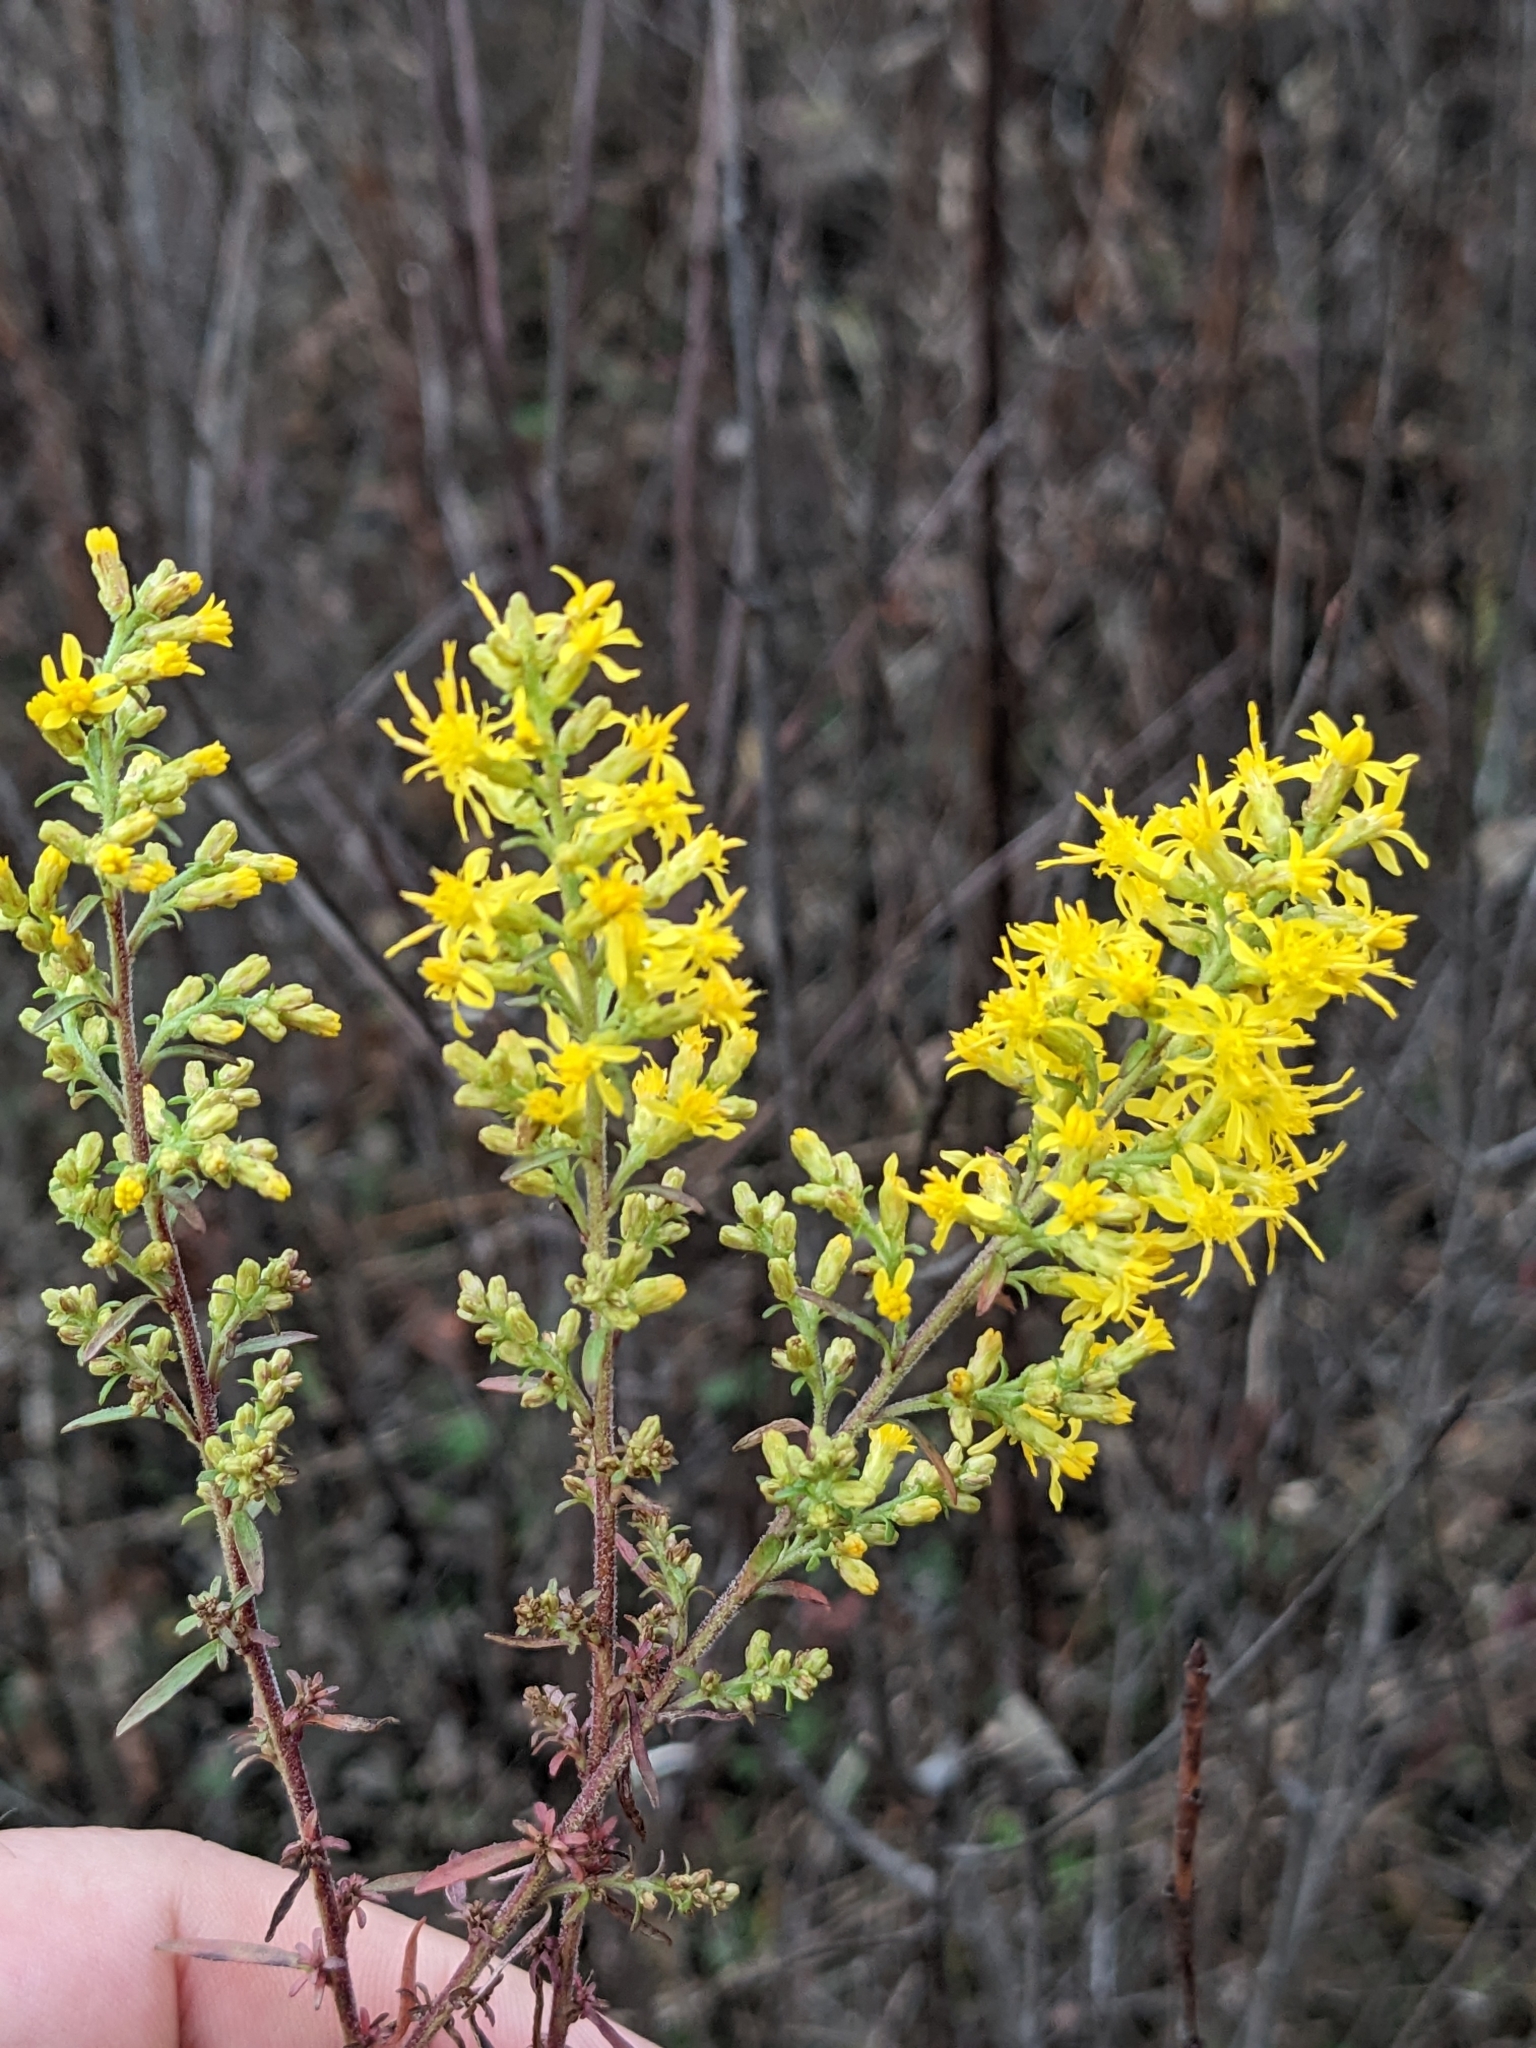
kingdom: Plantae
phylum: Tracheophyta
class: Magnoliopsida
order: Asterales
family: Asteraceae
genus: Solidago
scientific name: Solidago rigidiuscula
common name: Stiff-leaved showy goldenrod
